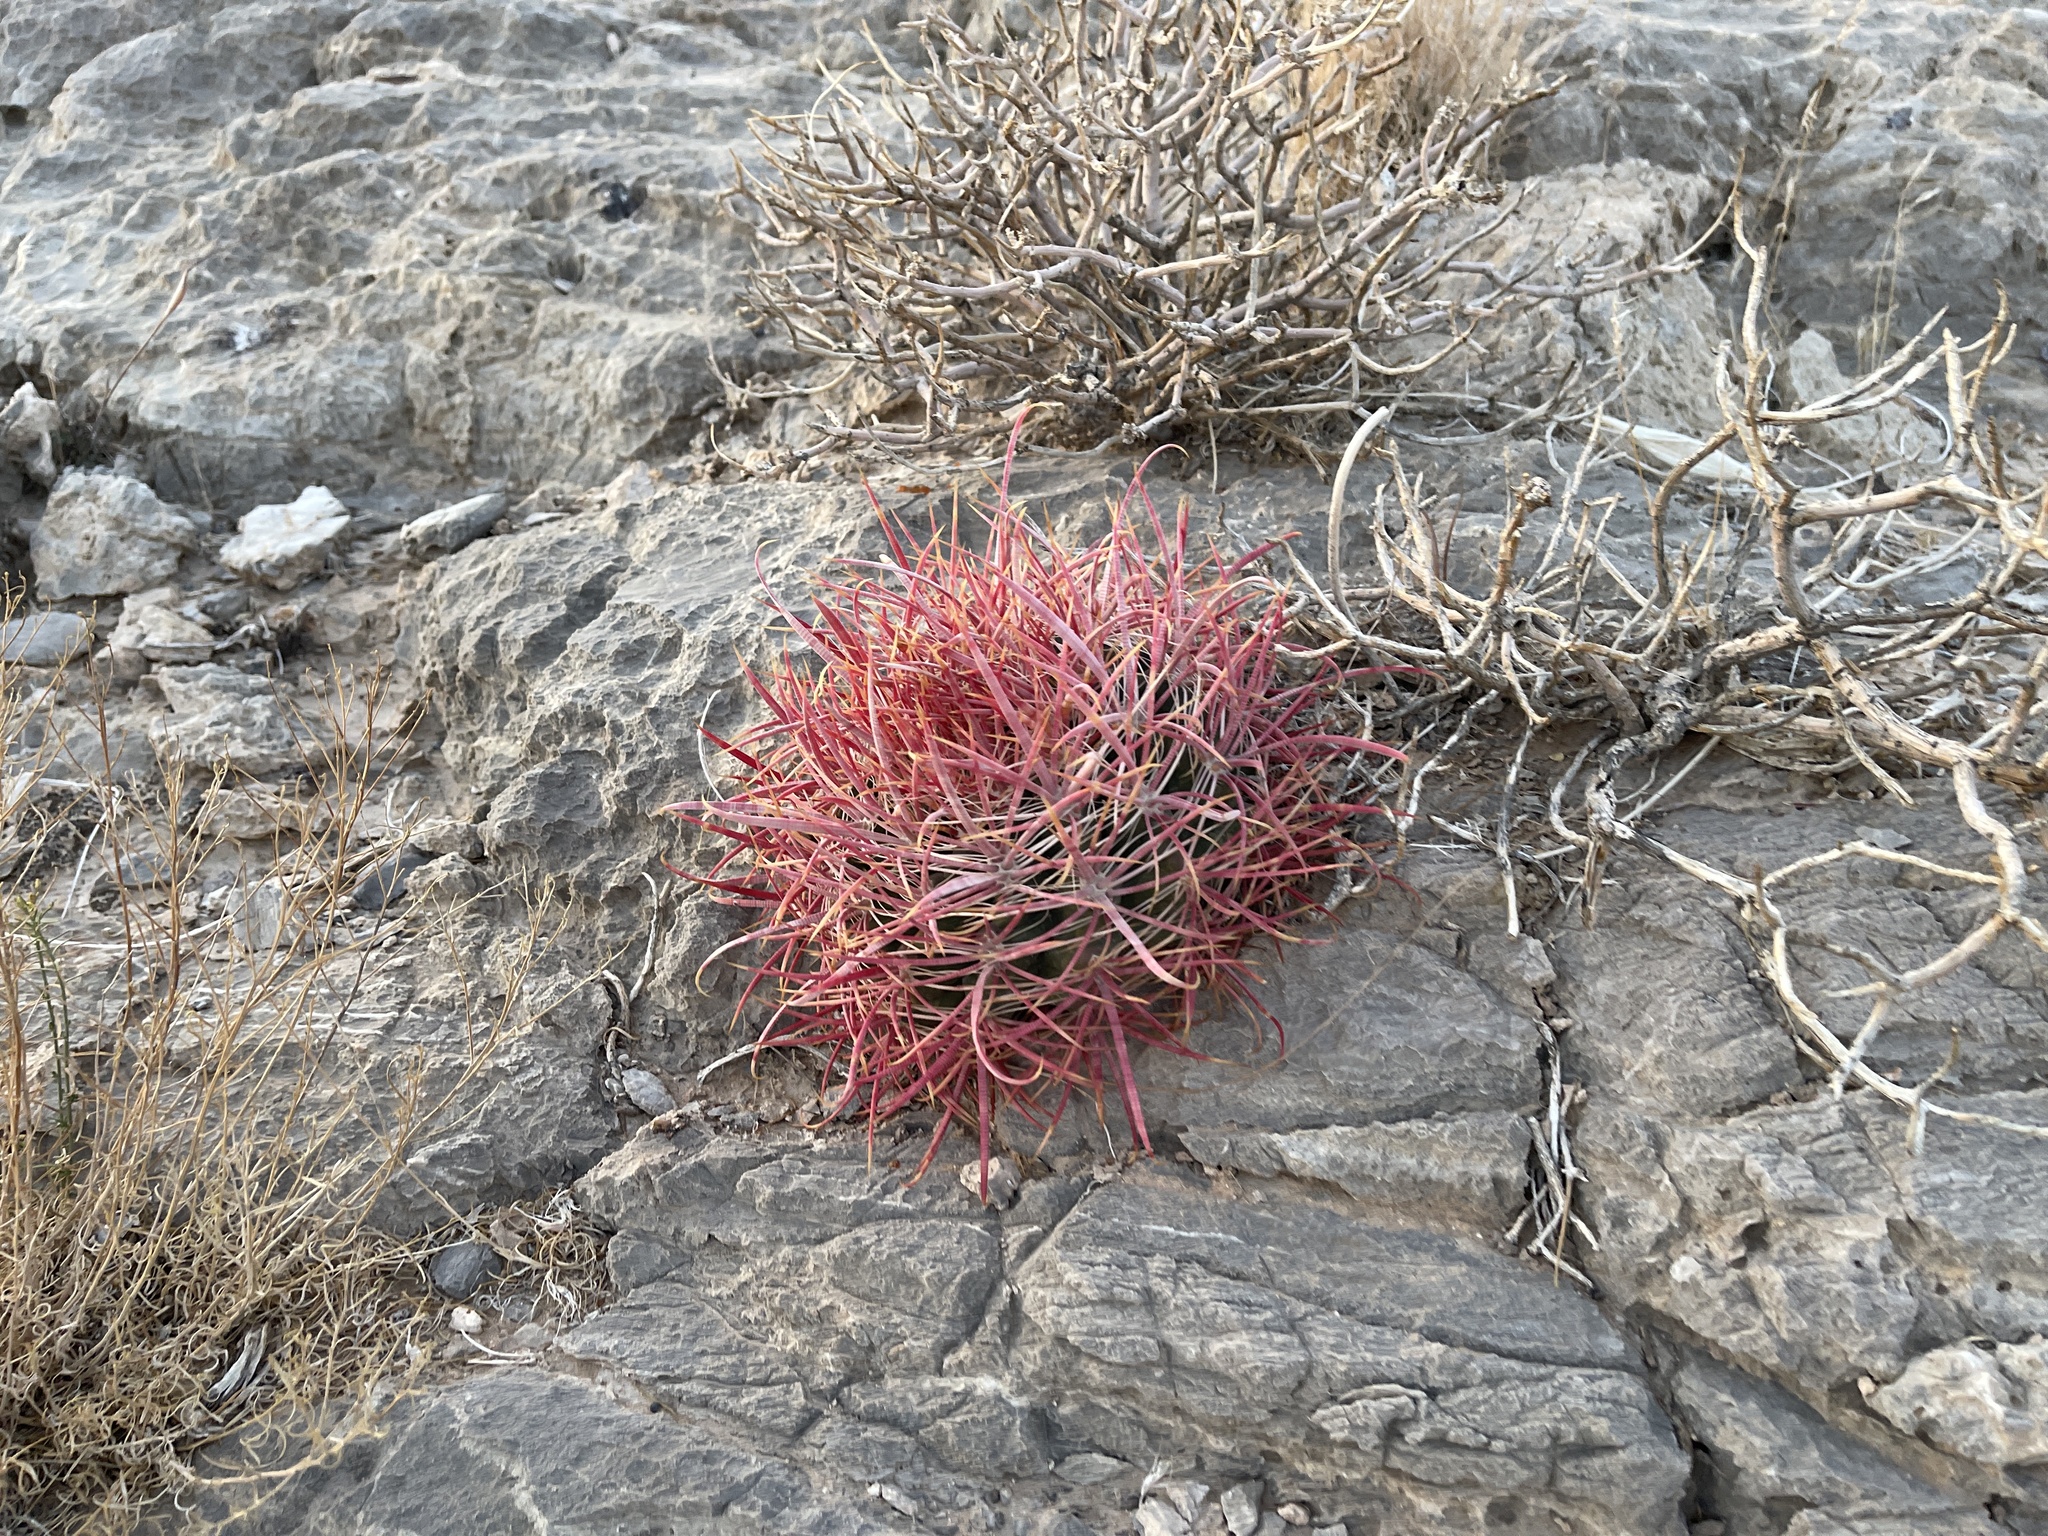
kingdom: Plantae
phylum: Tracheophyta
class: Magnoliopsida
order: Caryophyllales
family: Cactaceae
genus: Ferocactus
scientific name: Ferocactus cylindraceus
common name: California barrel cactus
